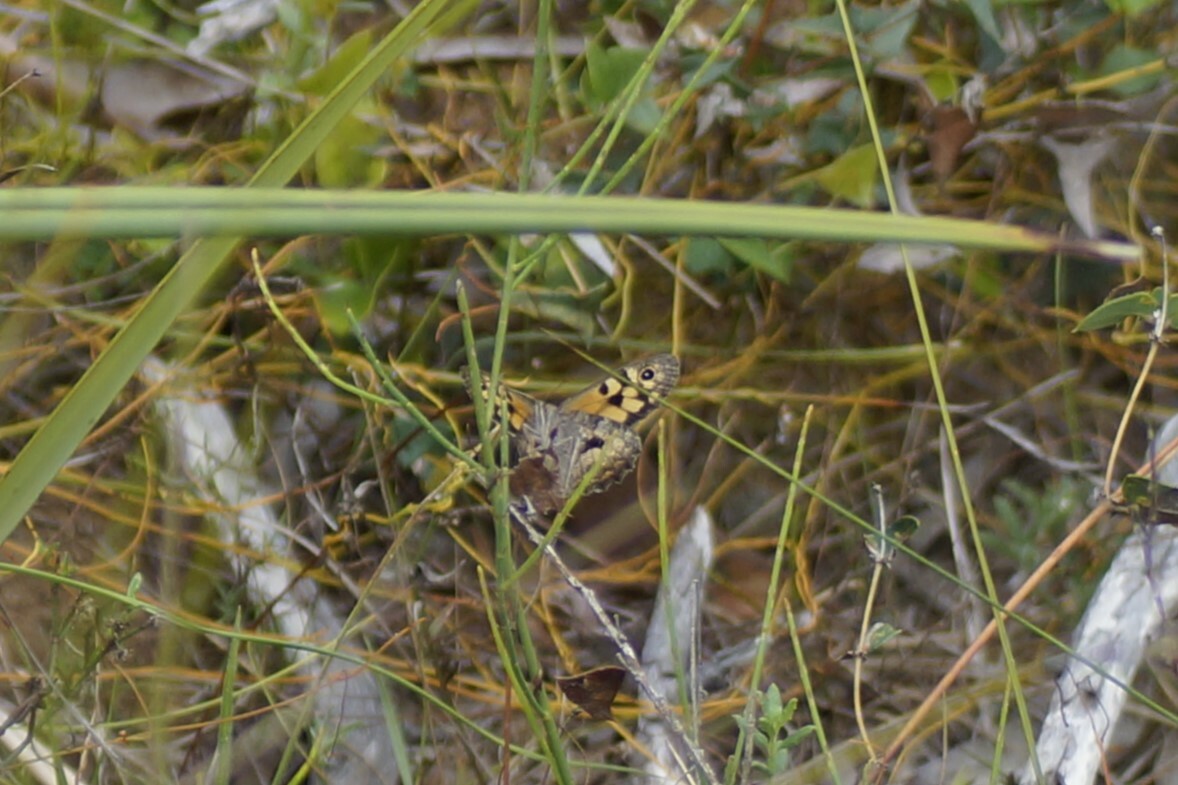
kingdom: Animalia
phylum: Arthropoda
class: Insecta
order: Lepidoptera
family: Nymphalidae
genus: Geitoneura
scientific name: Geitoneura klugii
